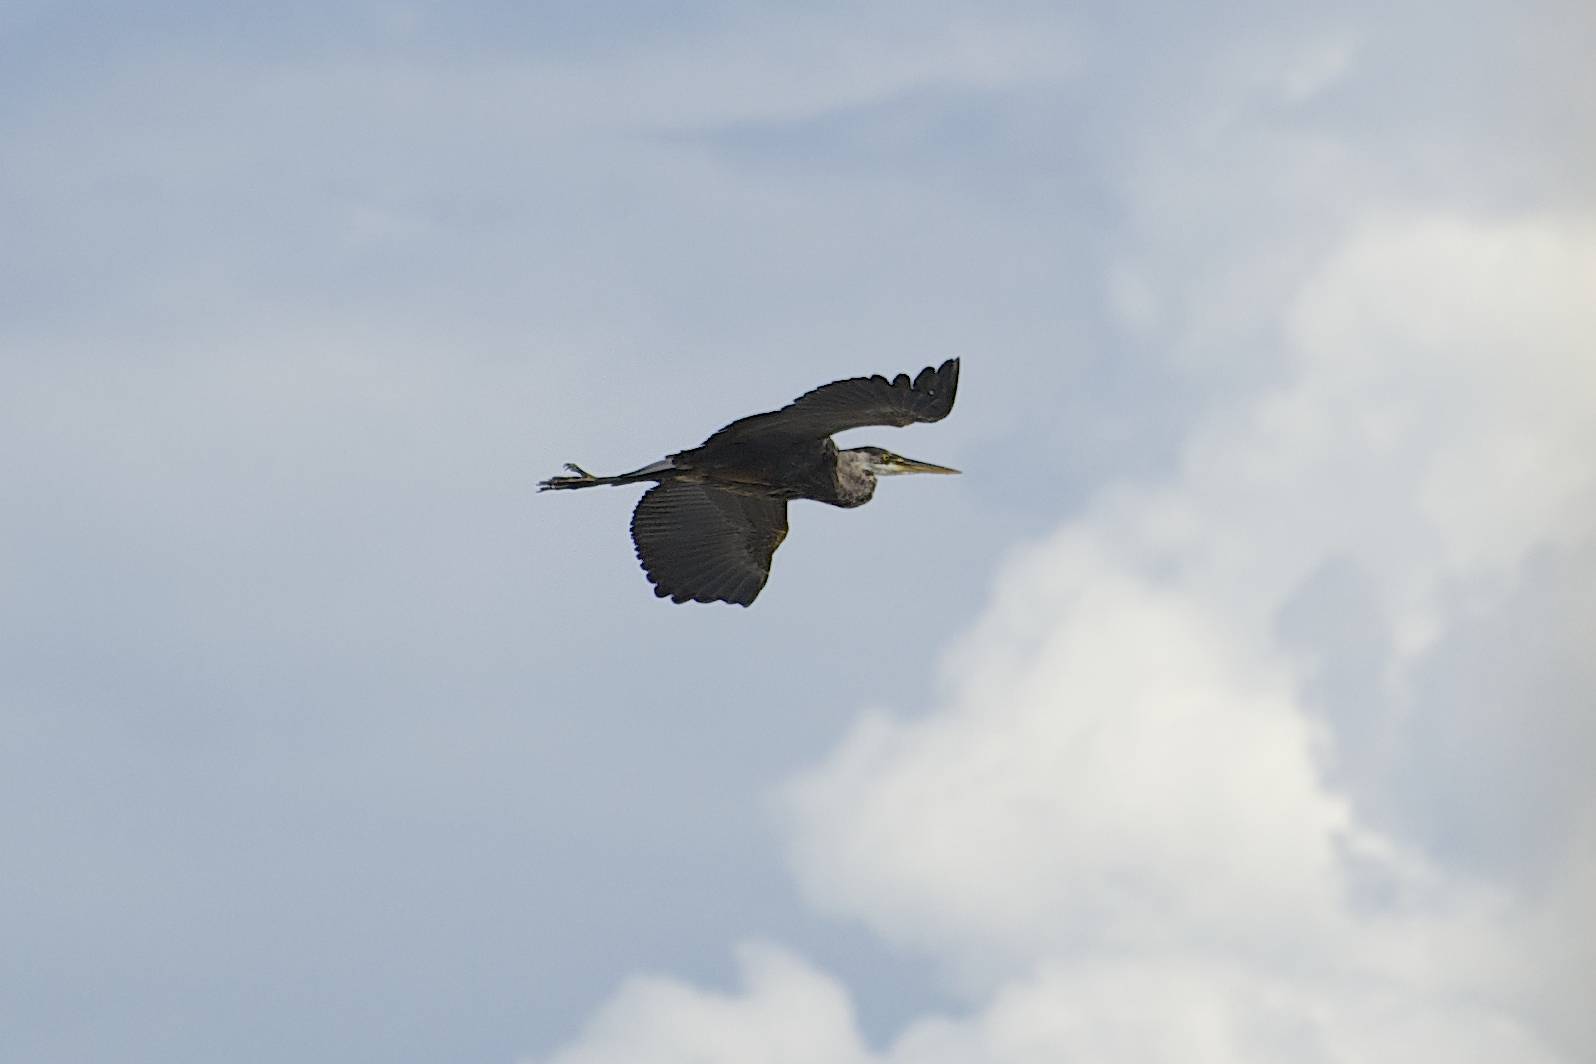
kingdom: Animalia
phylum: Chordata
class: Aves
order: Pelecaniformes
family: Ardeidae
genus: Ardea
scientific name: Ardea herodias
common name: Great blue heron
